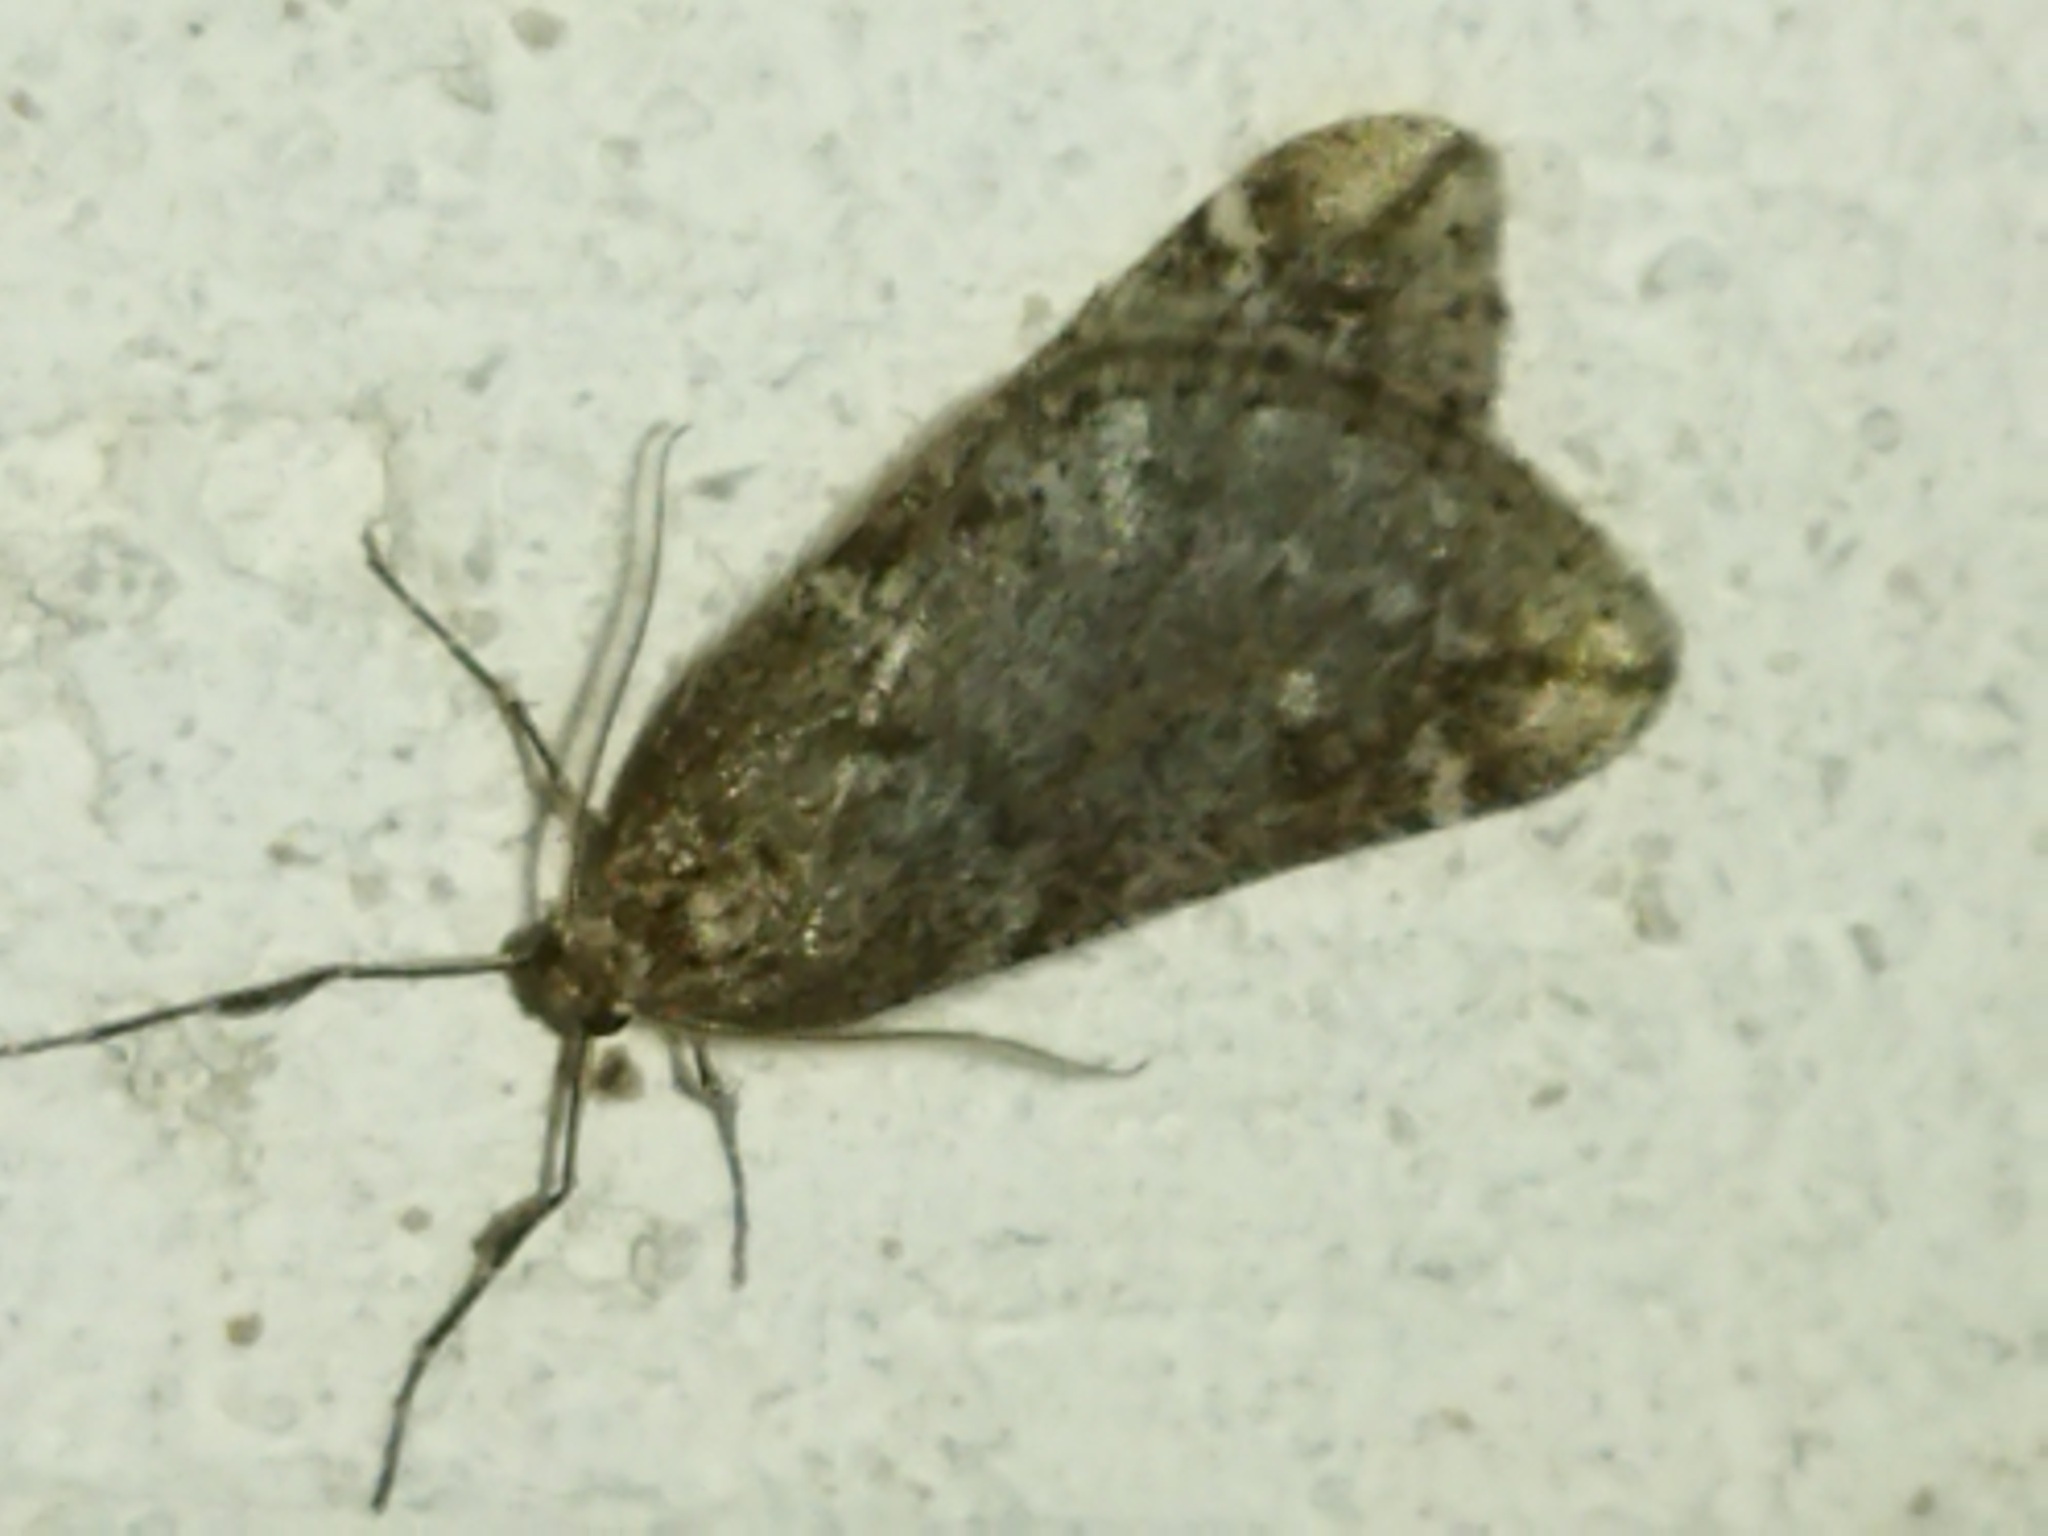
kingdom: Animalia
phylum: Arthropoda
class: Insecta
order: Lepidoptera
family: Geometridae
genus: Alsophila
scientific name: Alsophila aescularia
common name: March moth
